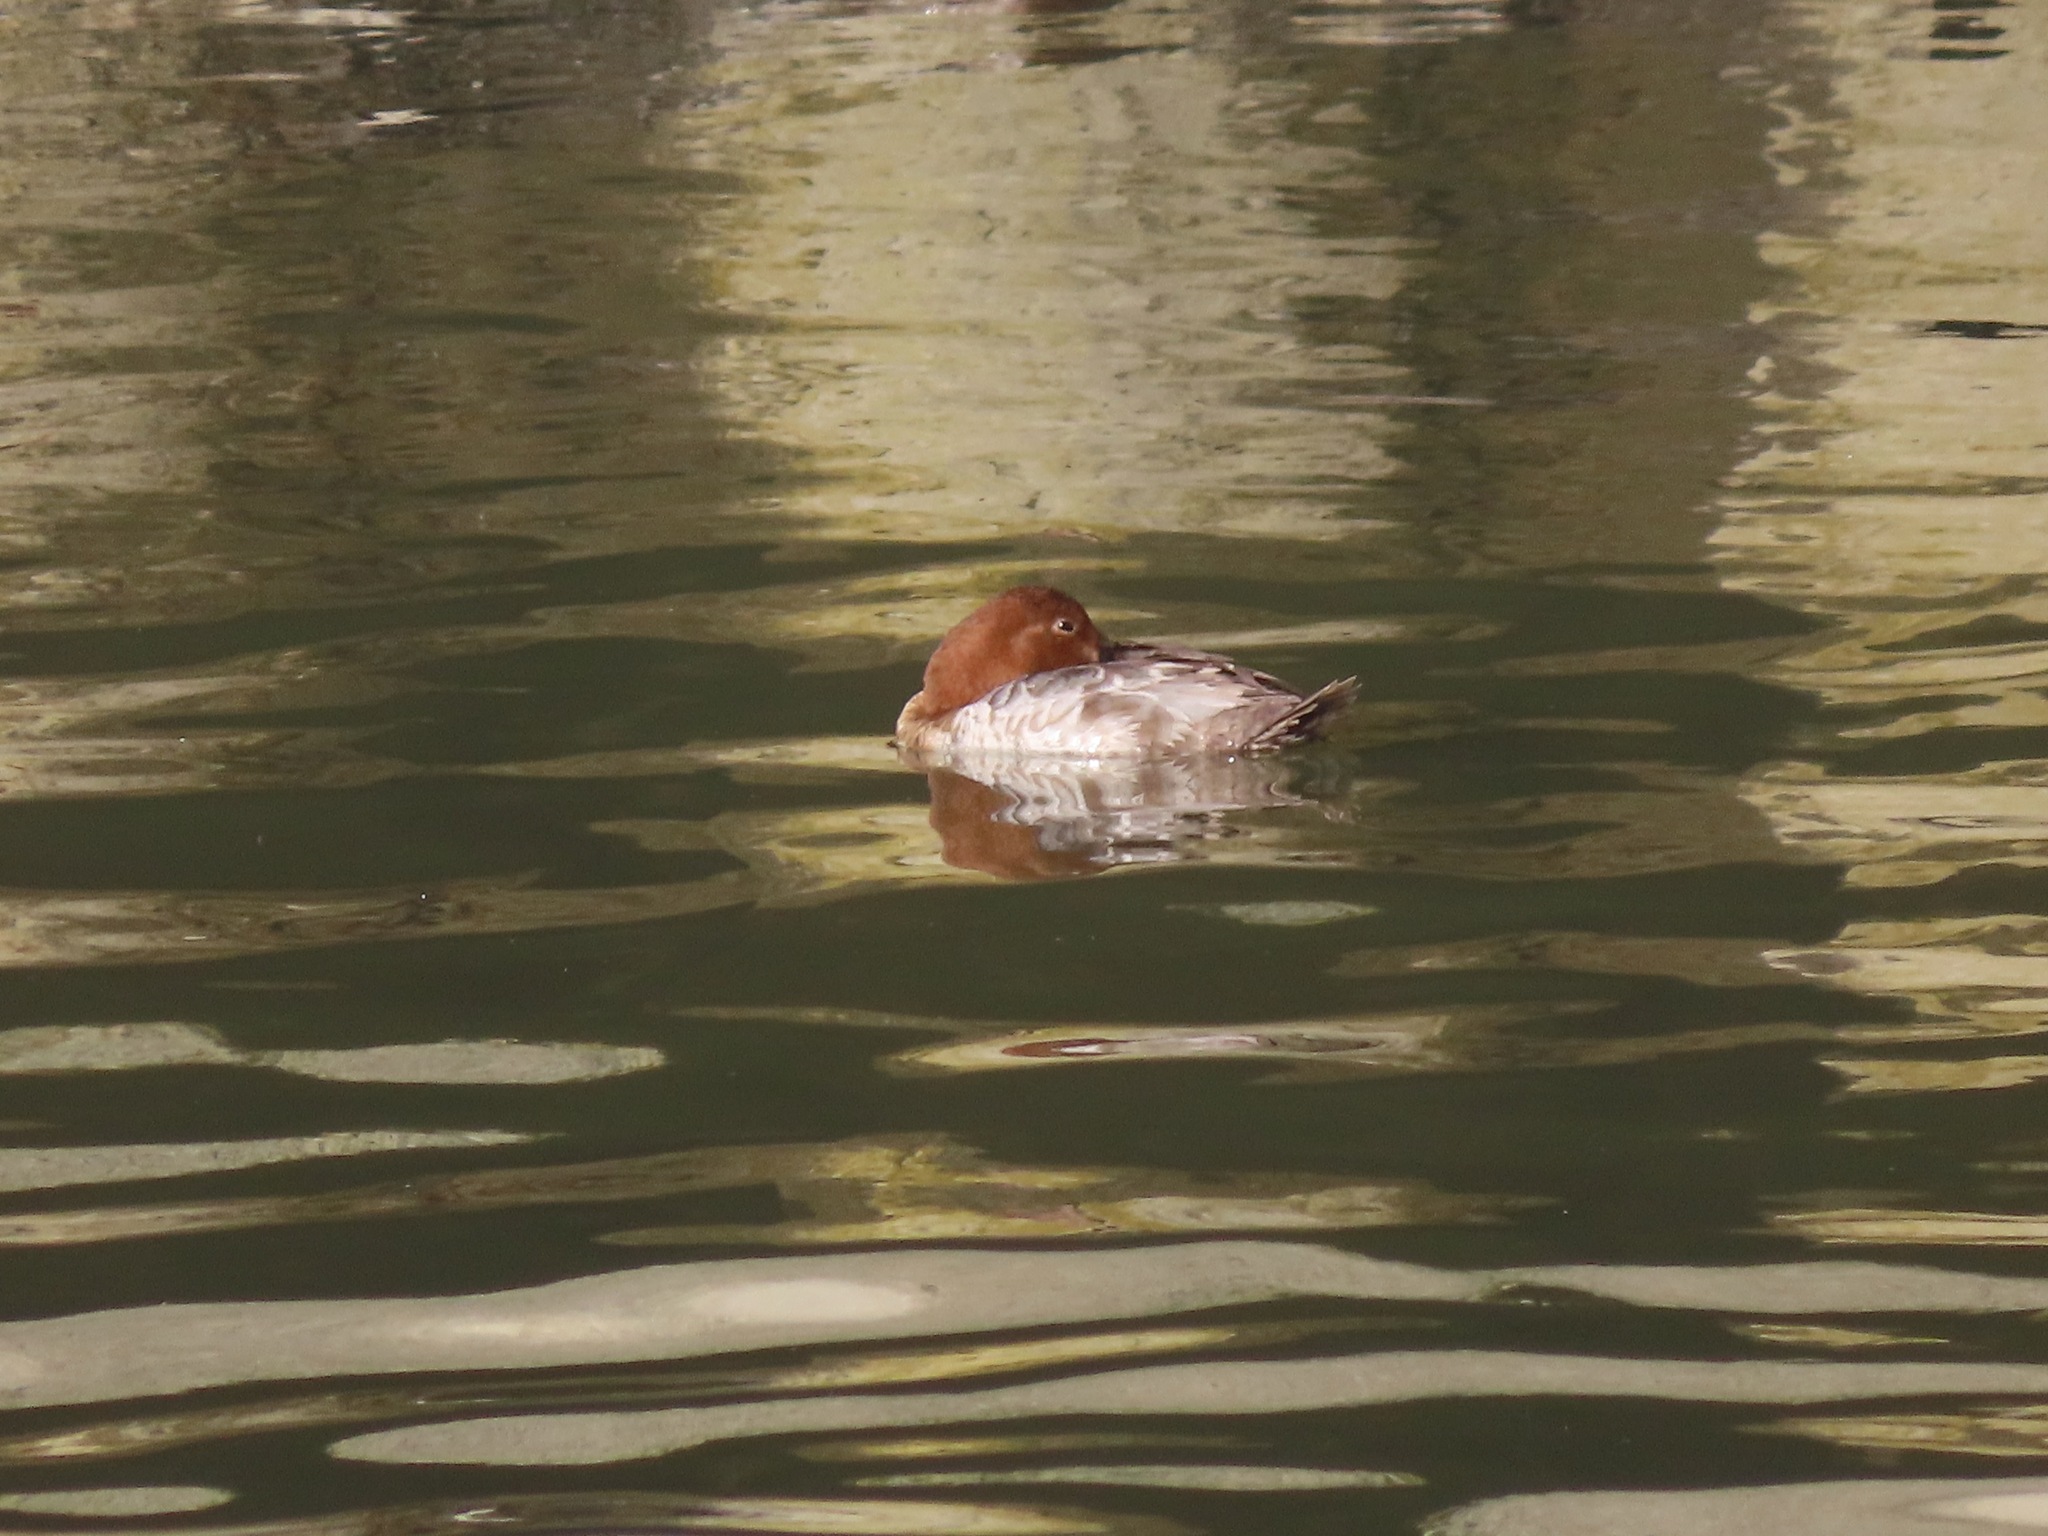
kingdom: Animalia
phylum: Chordata
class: Aves
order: Anseriformes
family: Anatidae
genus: Aythya
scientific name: Aythya ferina
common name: Common pochard
